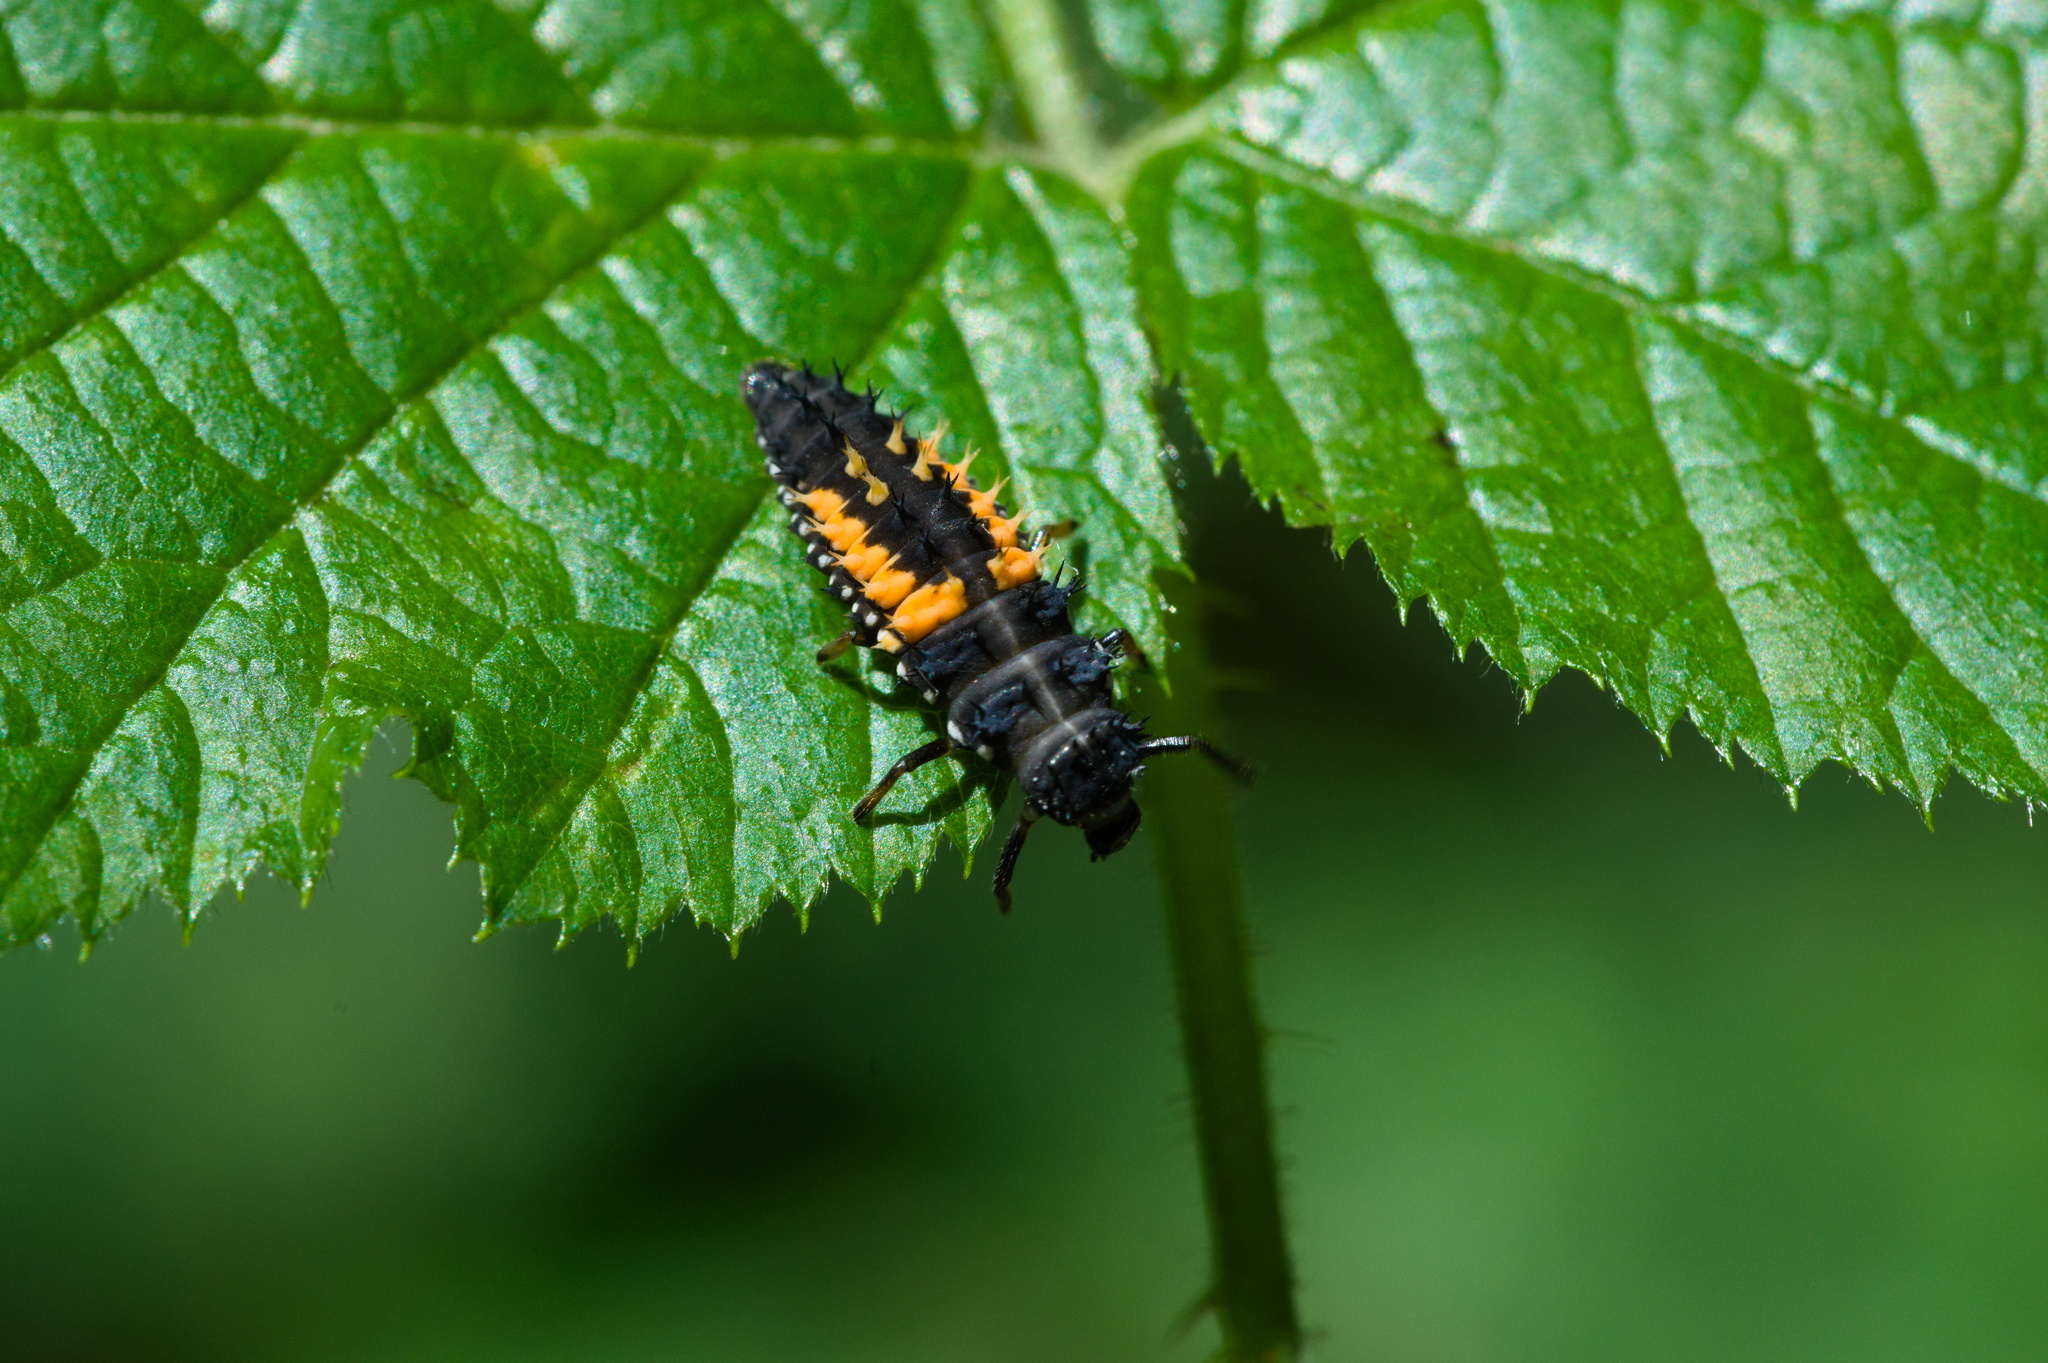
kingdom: Animalia
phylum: Arthropoda
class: Insecta
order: Coleoptera
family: Coccinellidae
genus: Harmonia
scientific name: Harmonia axyridis
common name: Harlequin ladybird
